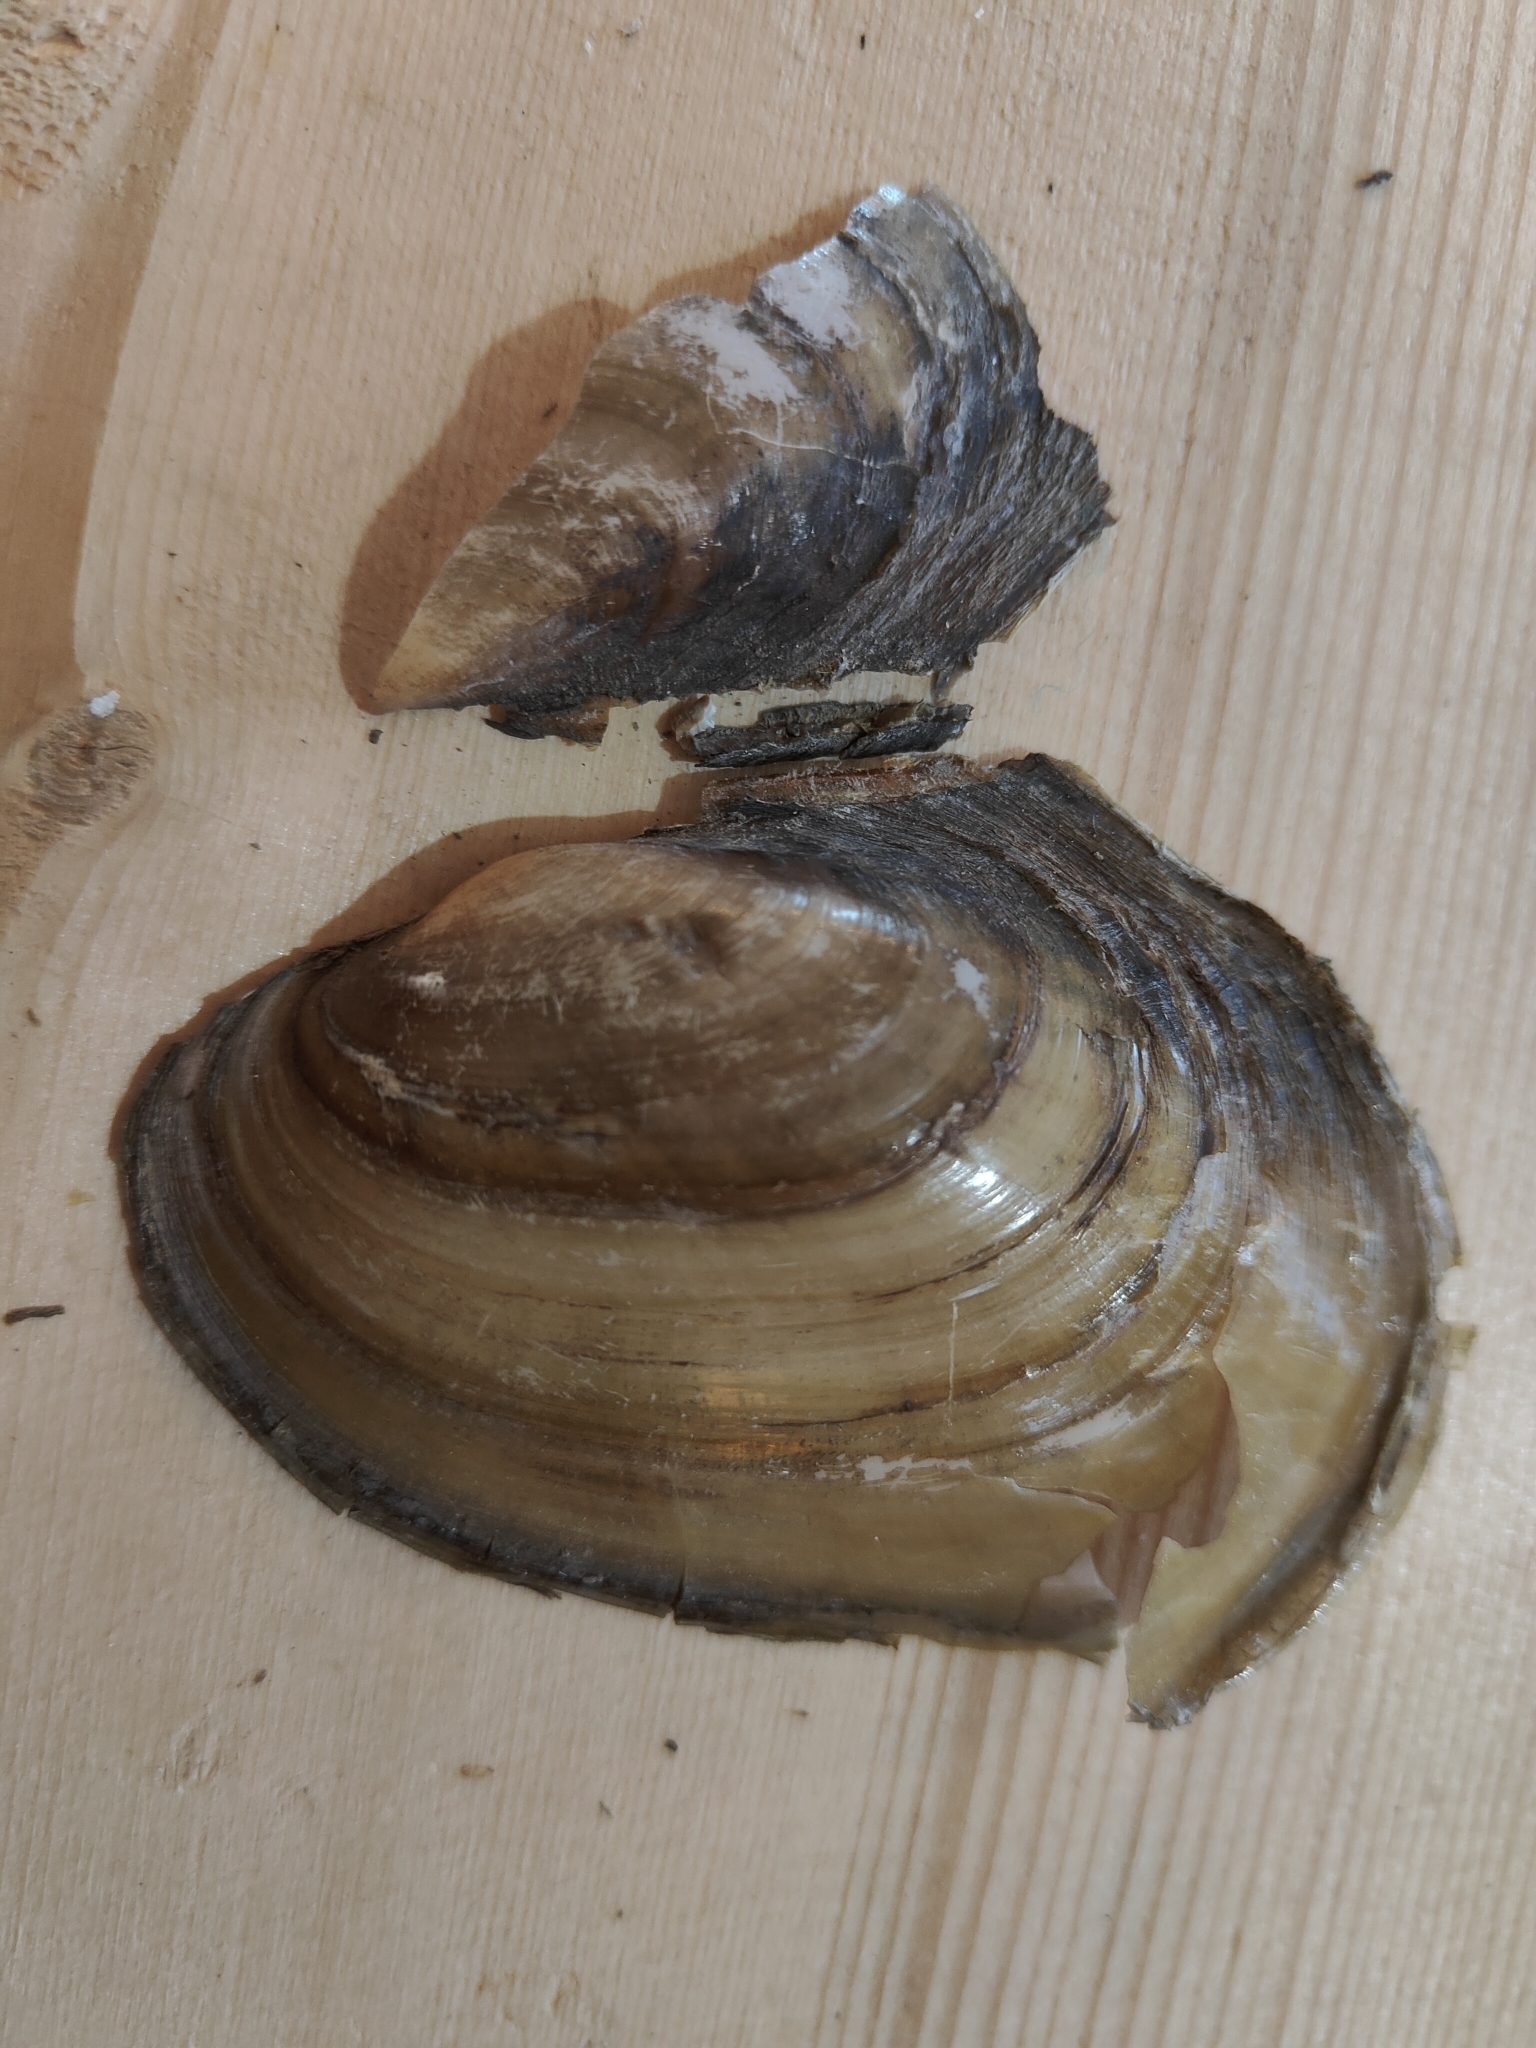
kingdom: Animalia
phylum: Mollusca
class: Bivalvia
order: Unionida
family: Unionidae
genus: Potamilus
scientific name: Potamilus fragilis
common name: Fragile papershell
